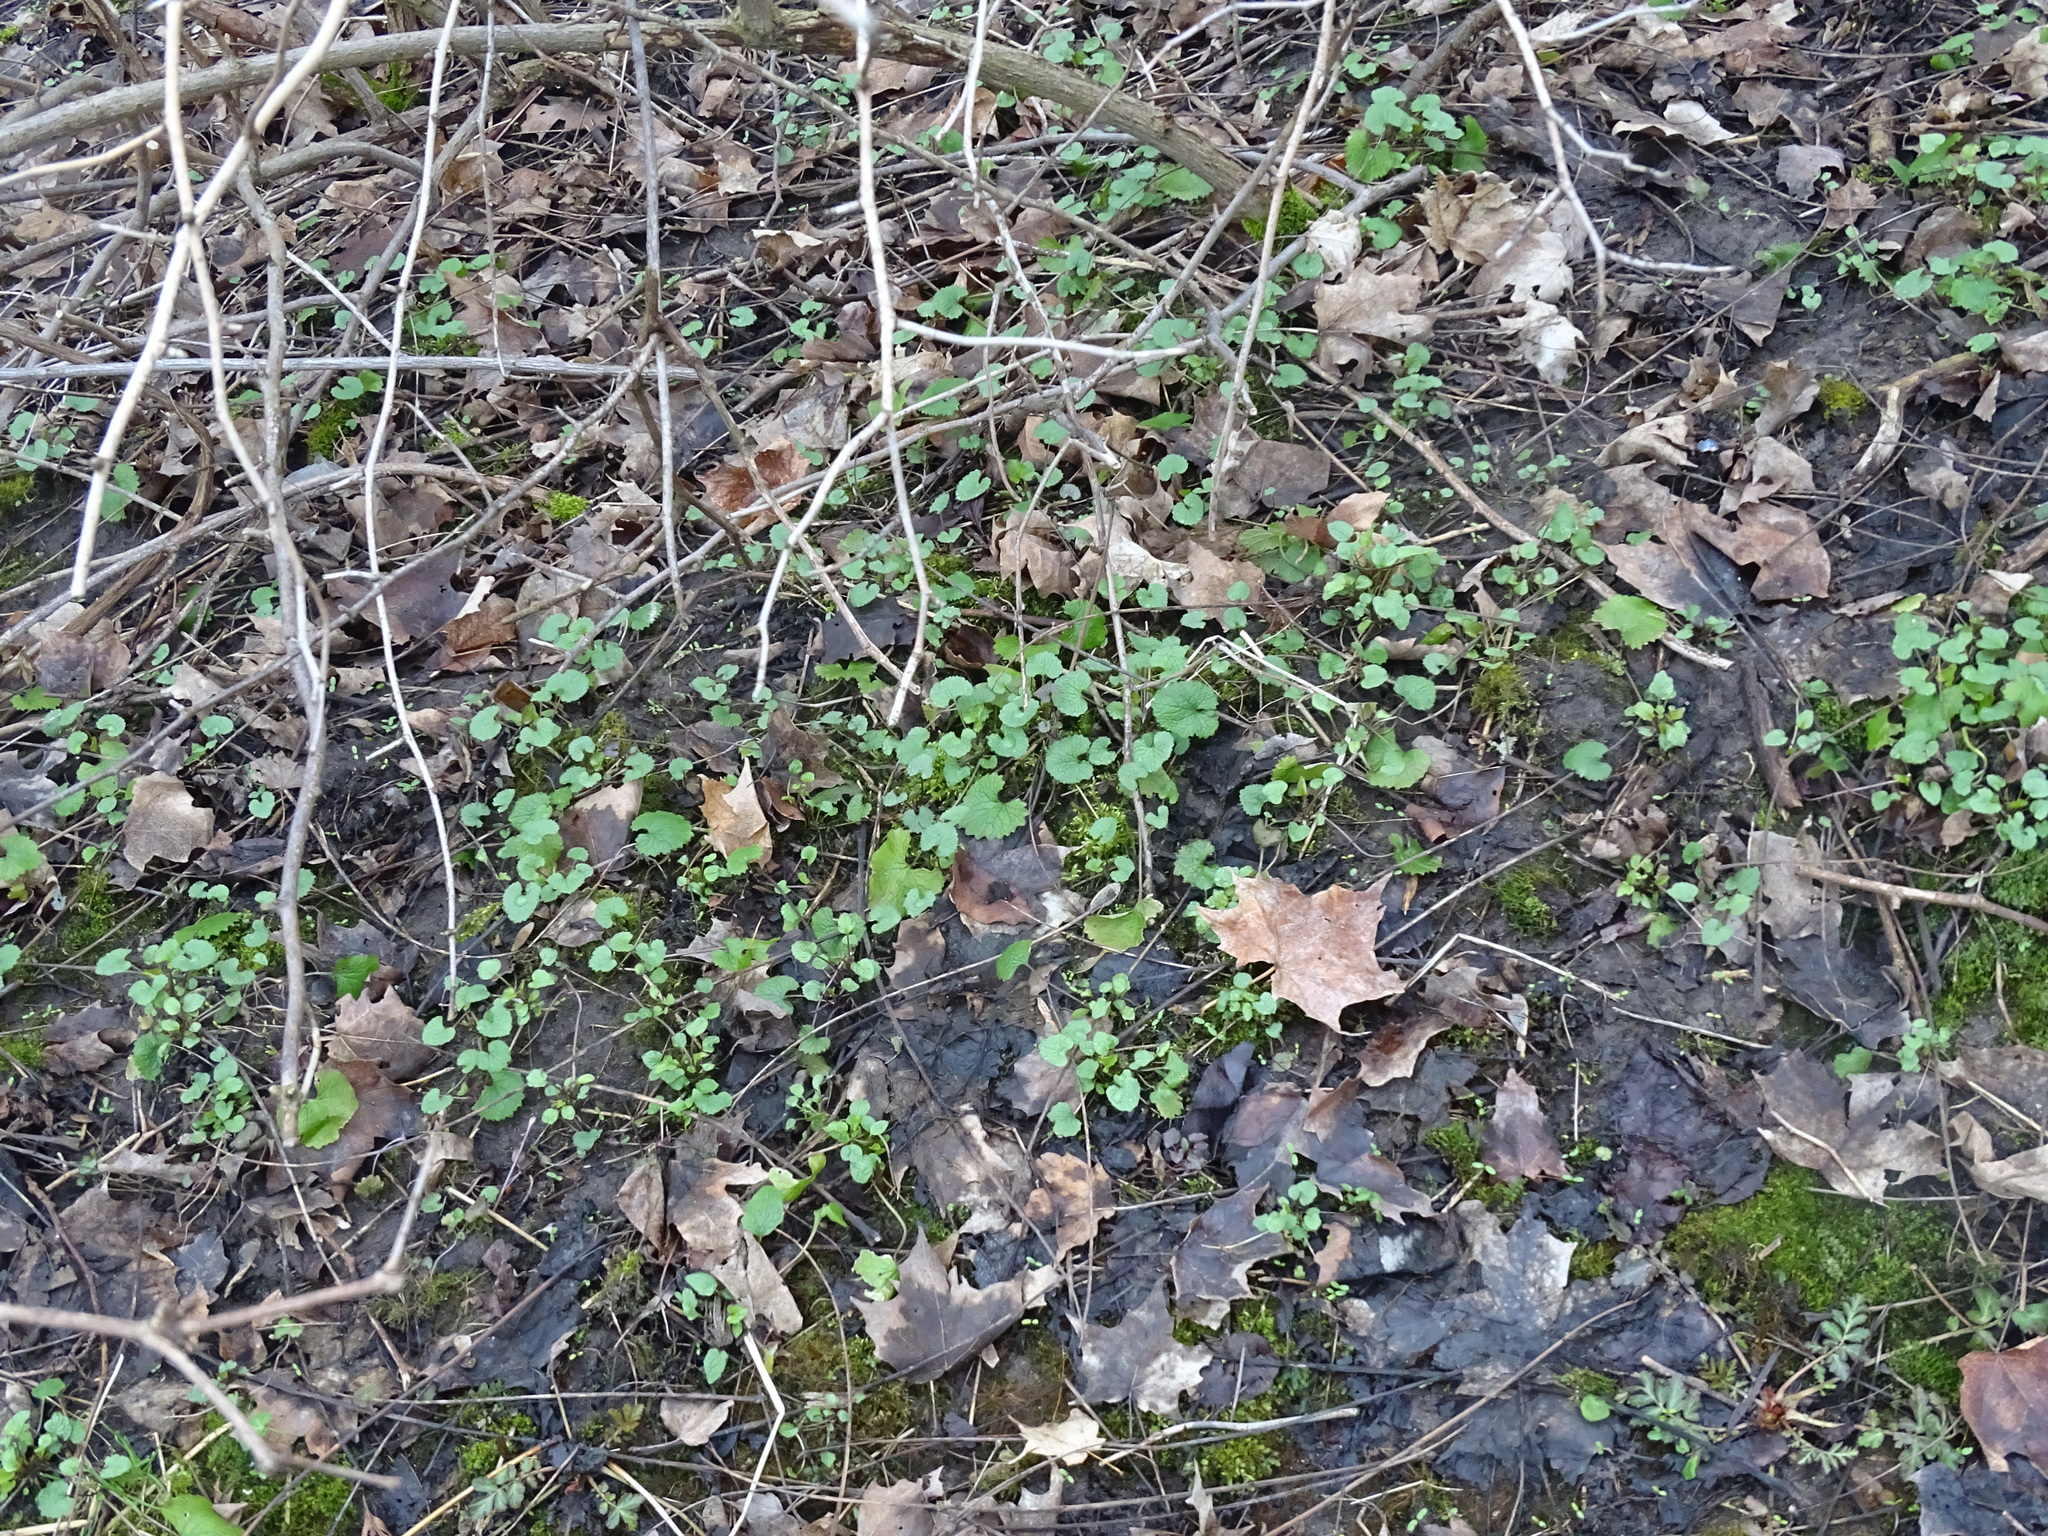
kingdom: Plantae
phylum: Tracheophyta
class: Magnoliopsida
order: Brassicales
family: Brassicaceae
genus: Alliaria
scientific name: Alliaria petiolata
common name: Garlic mustard
